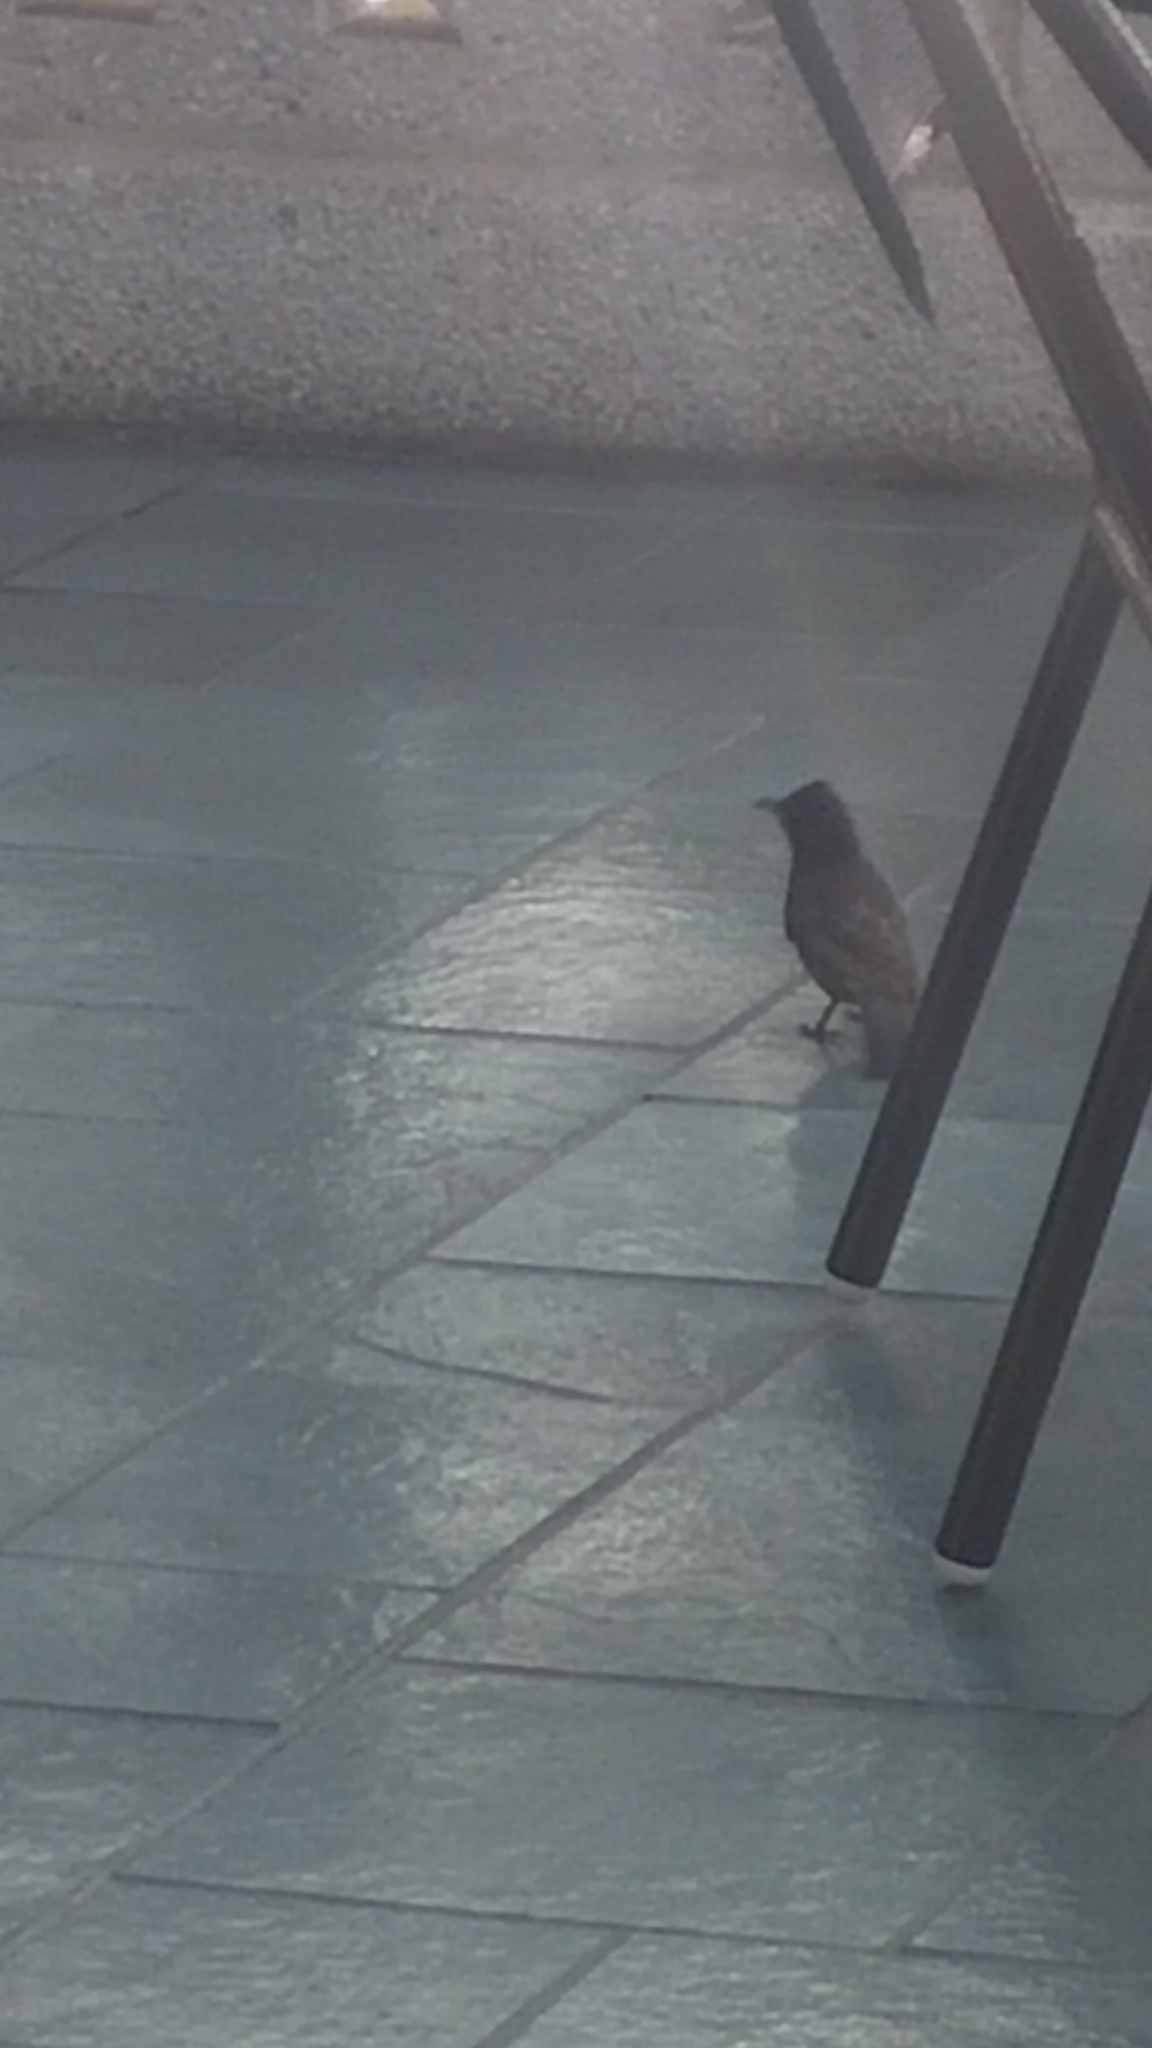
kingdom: Animalia
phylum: Chordata
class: Aves
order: Passeriformes
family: Pycnonotidae
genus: Pycnonotus
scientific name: Pycnonotus cafer
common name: Red-vented bulbul
